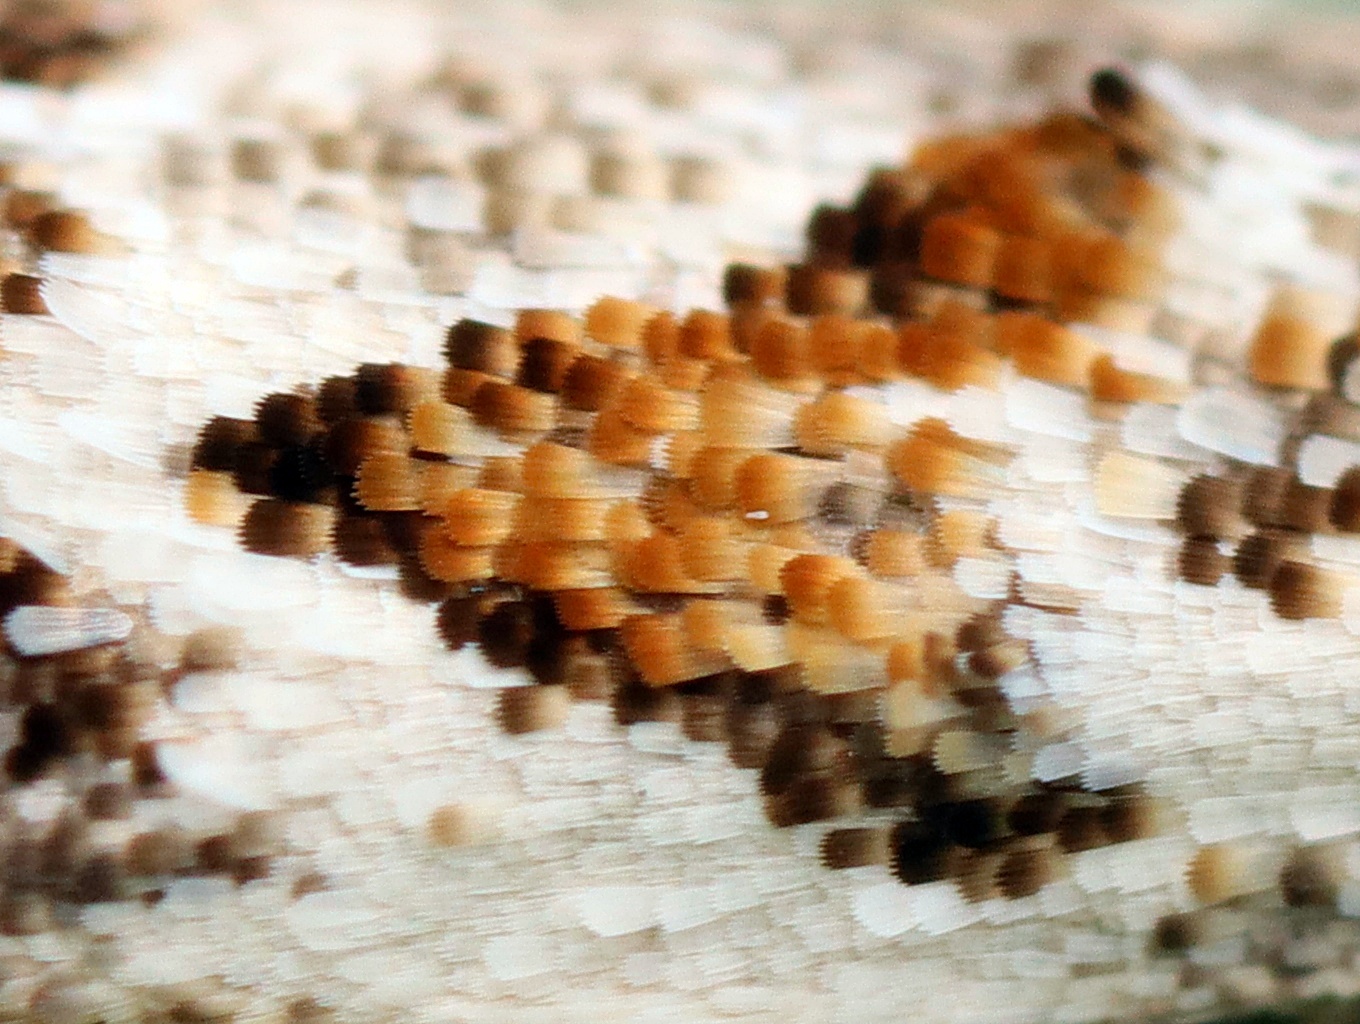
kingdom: Animalia
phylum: Arthropoda
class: Insecta
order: Lepidoptera
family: Oecophoridae
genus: Trachypepla
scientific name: Trachypepla galaxias
